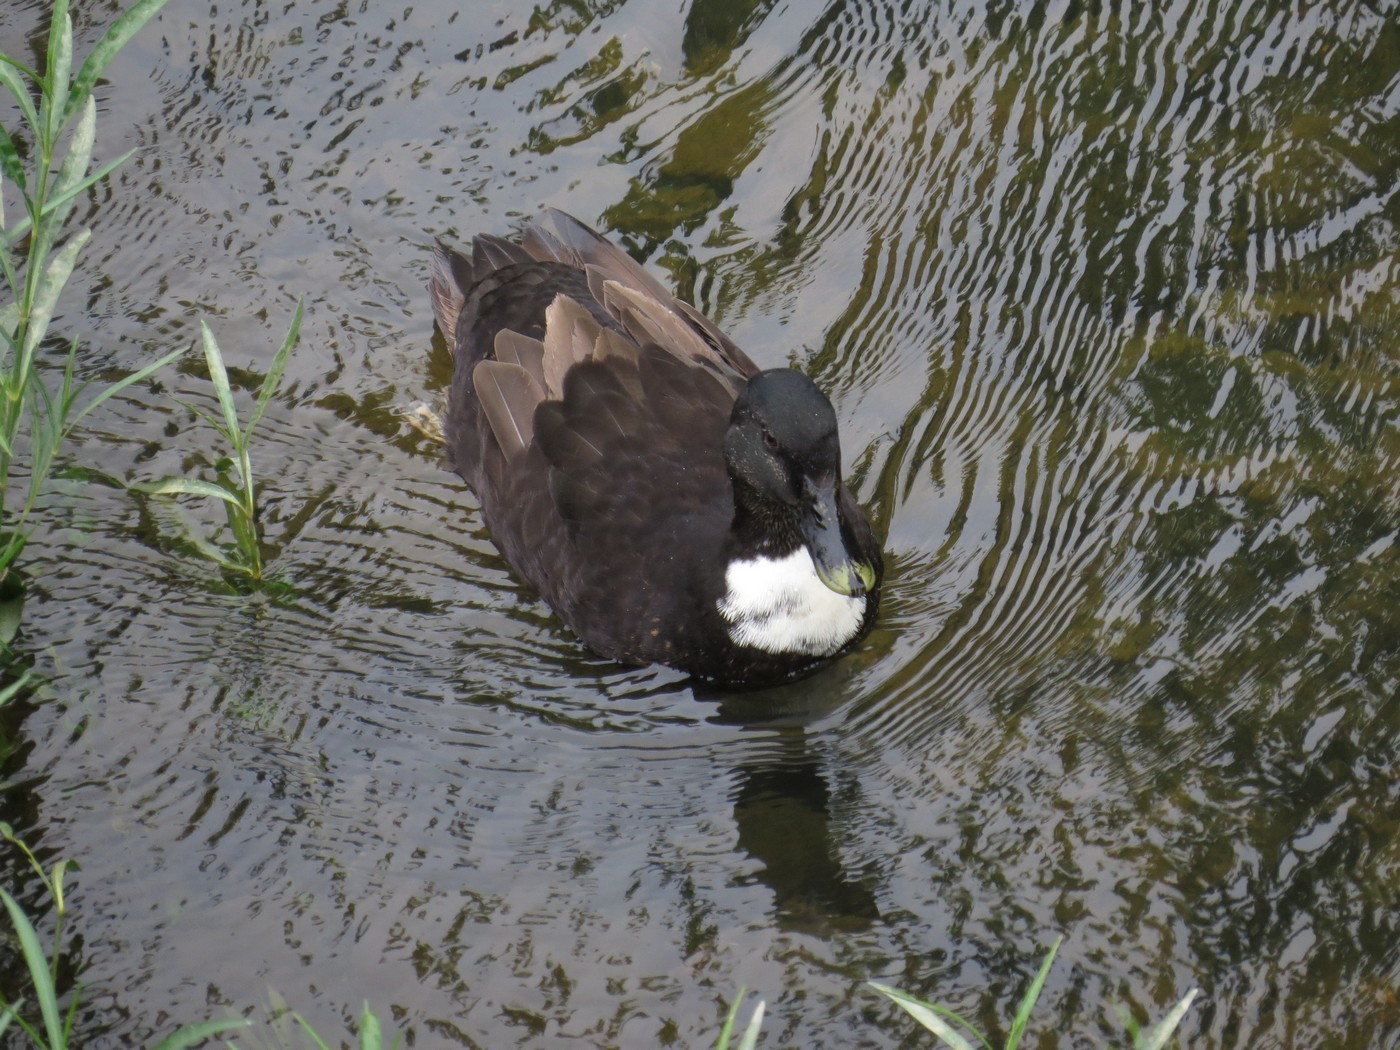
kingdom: Animalia
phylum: Chordata
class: Aves
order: Anseriformes
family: Anatidae
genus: Anas
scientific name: Anas platyrhynchos
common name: Mallard
